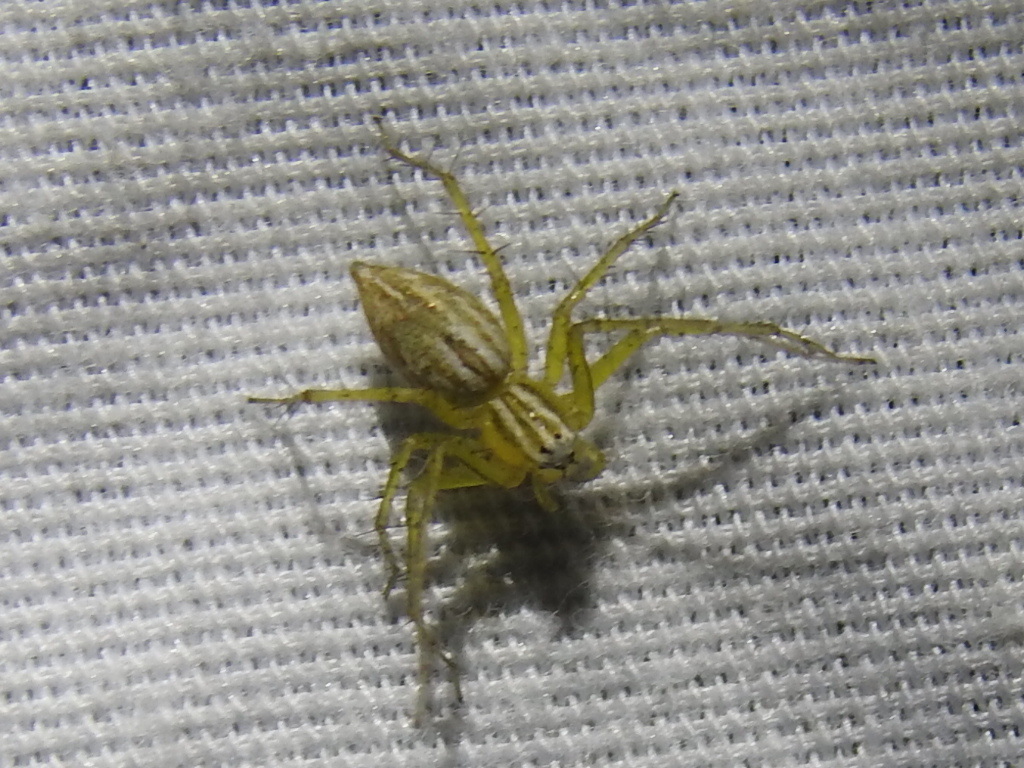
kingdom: Animalia
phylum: Arthropoda
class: Arachnida
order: Araneae
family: Oxyopidae
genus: Oxyopes
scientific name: Oxyopes salticus
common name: Lynx spiders
